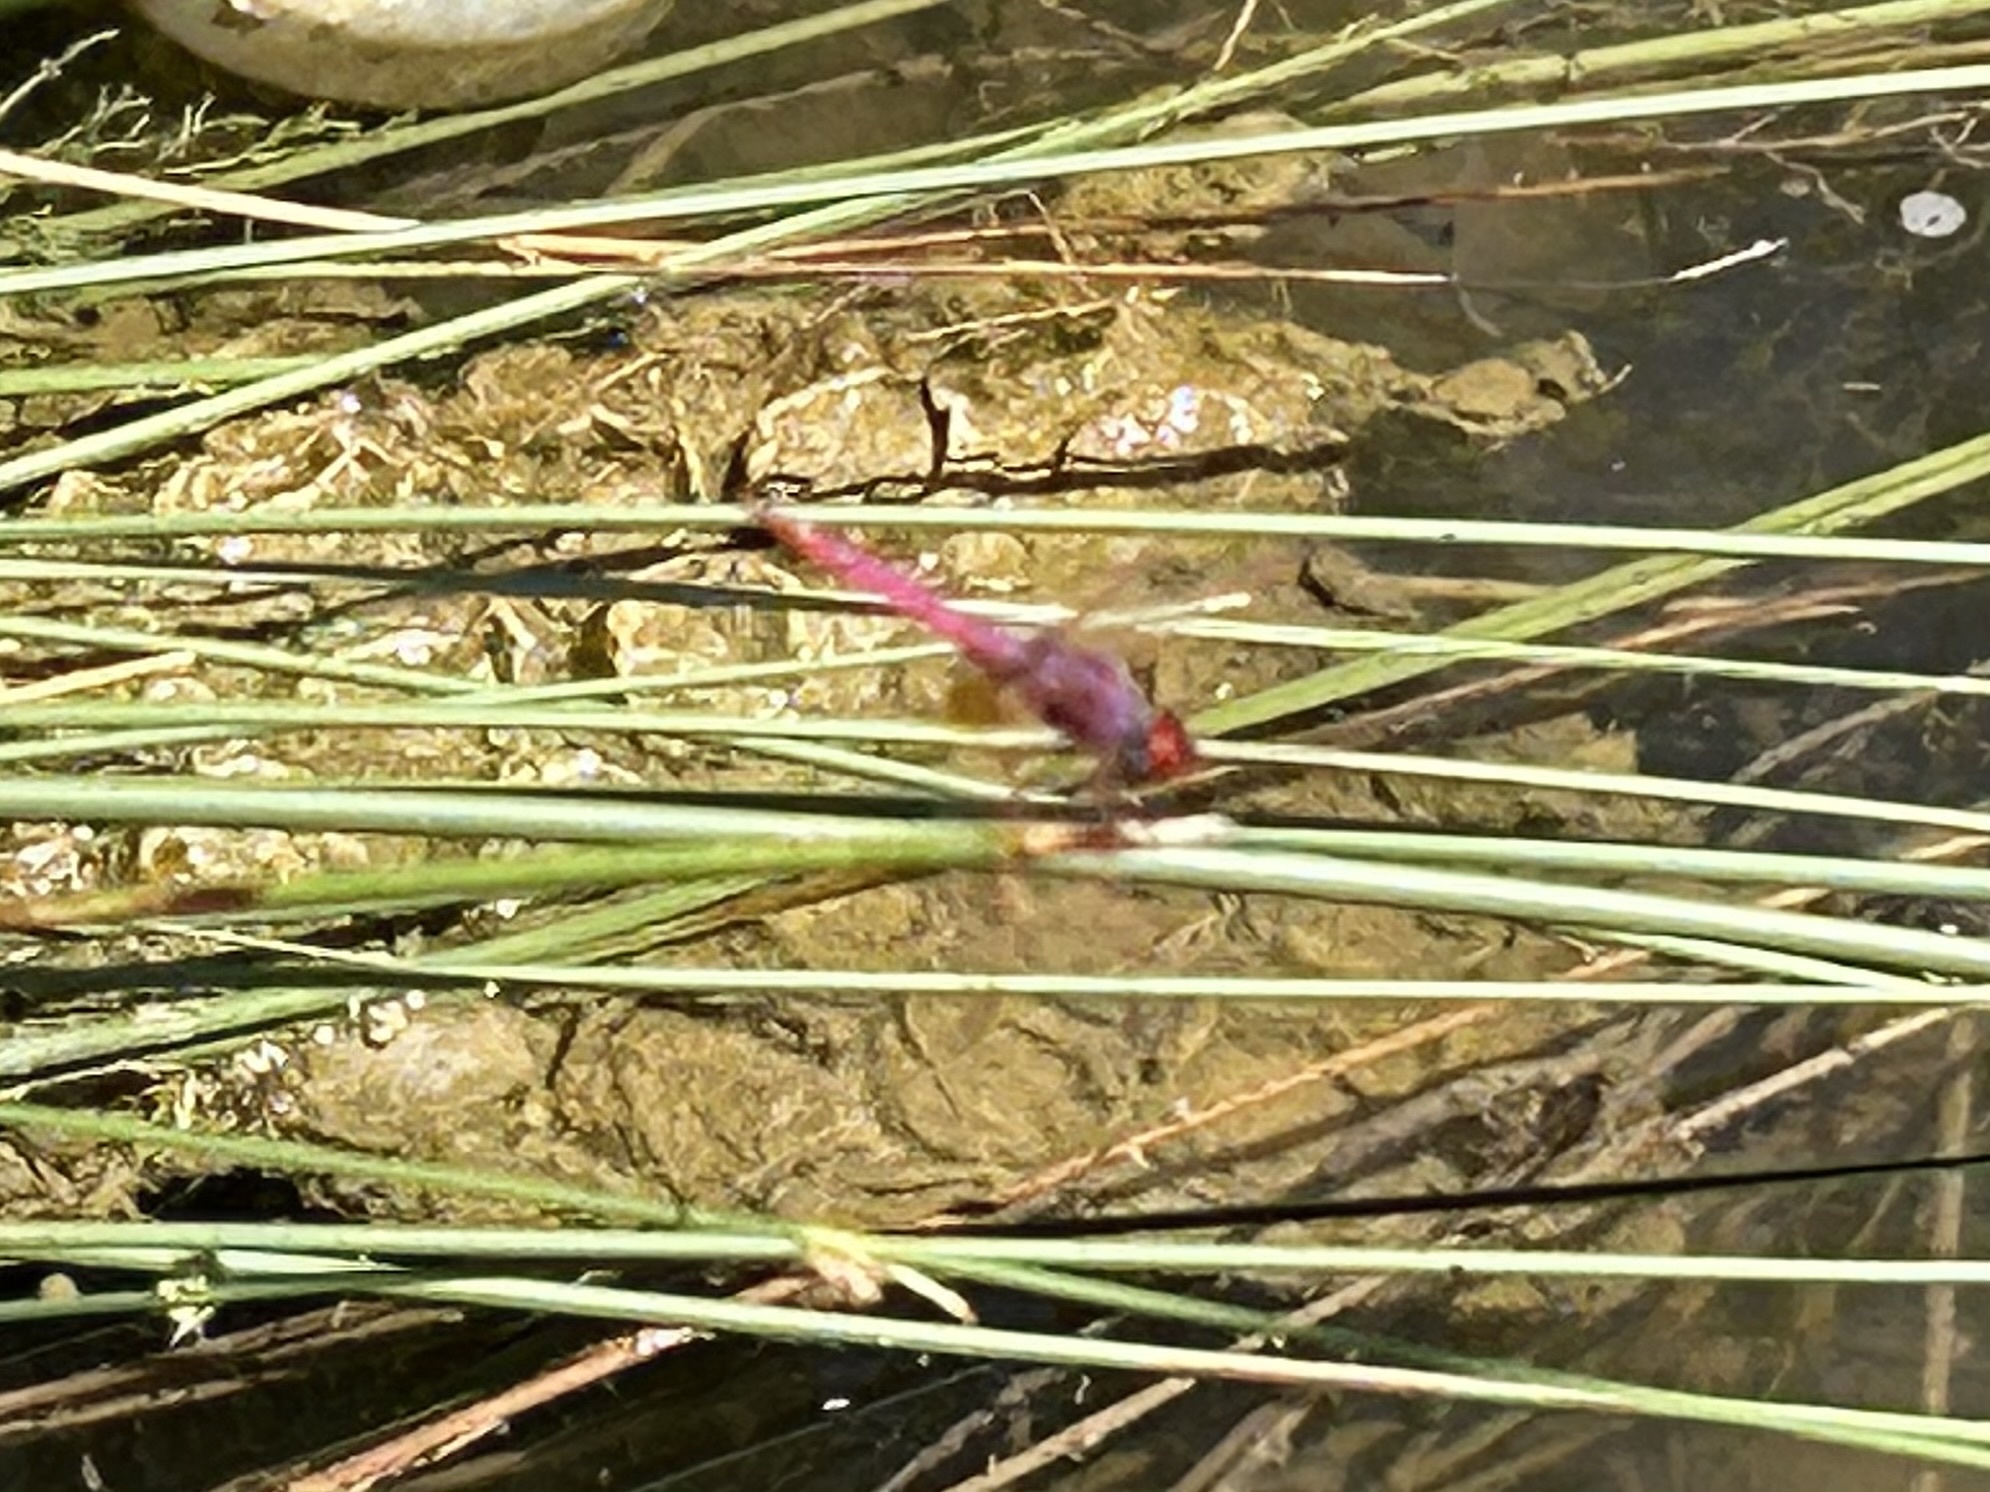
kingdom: Animalia
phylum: Arthropoda
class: Insecta
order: Odonata
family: Libellulidae
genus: Trithemis
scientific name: Trithemis annulata
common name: Violet dropwing
